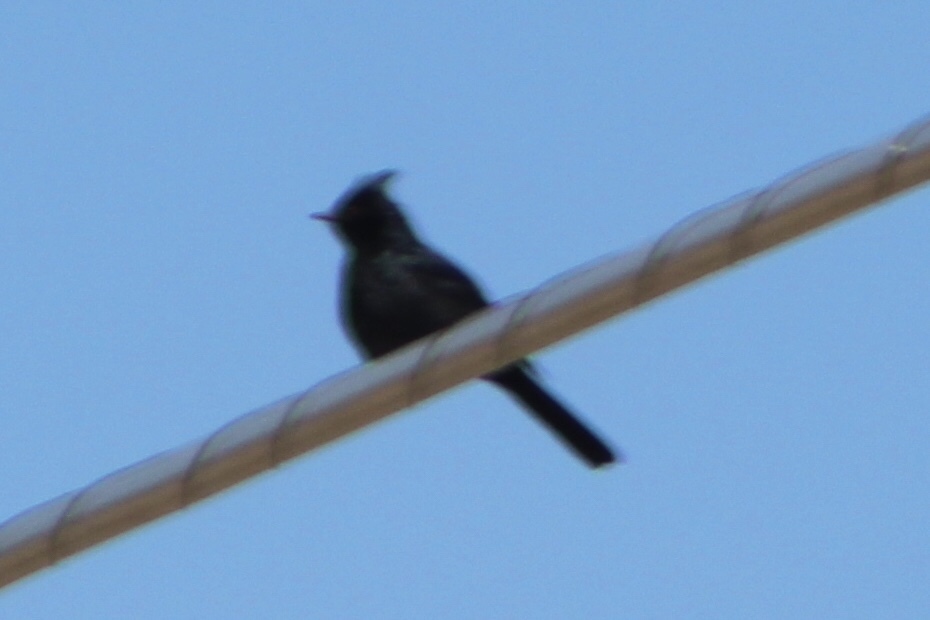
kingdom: Animalia
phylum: Chordata
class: Aves
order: Passeriformes
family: Ptilogonatidae
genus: Phainopepla
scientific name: Phainopepla nitens
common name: Phainopepla
